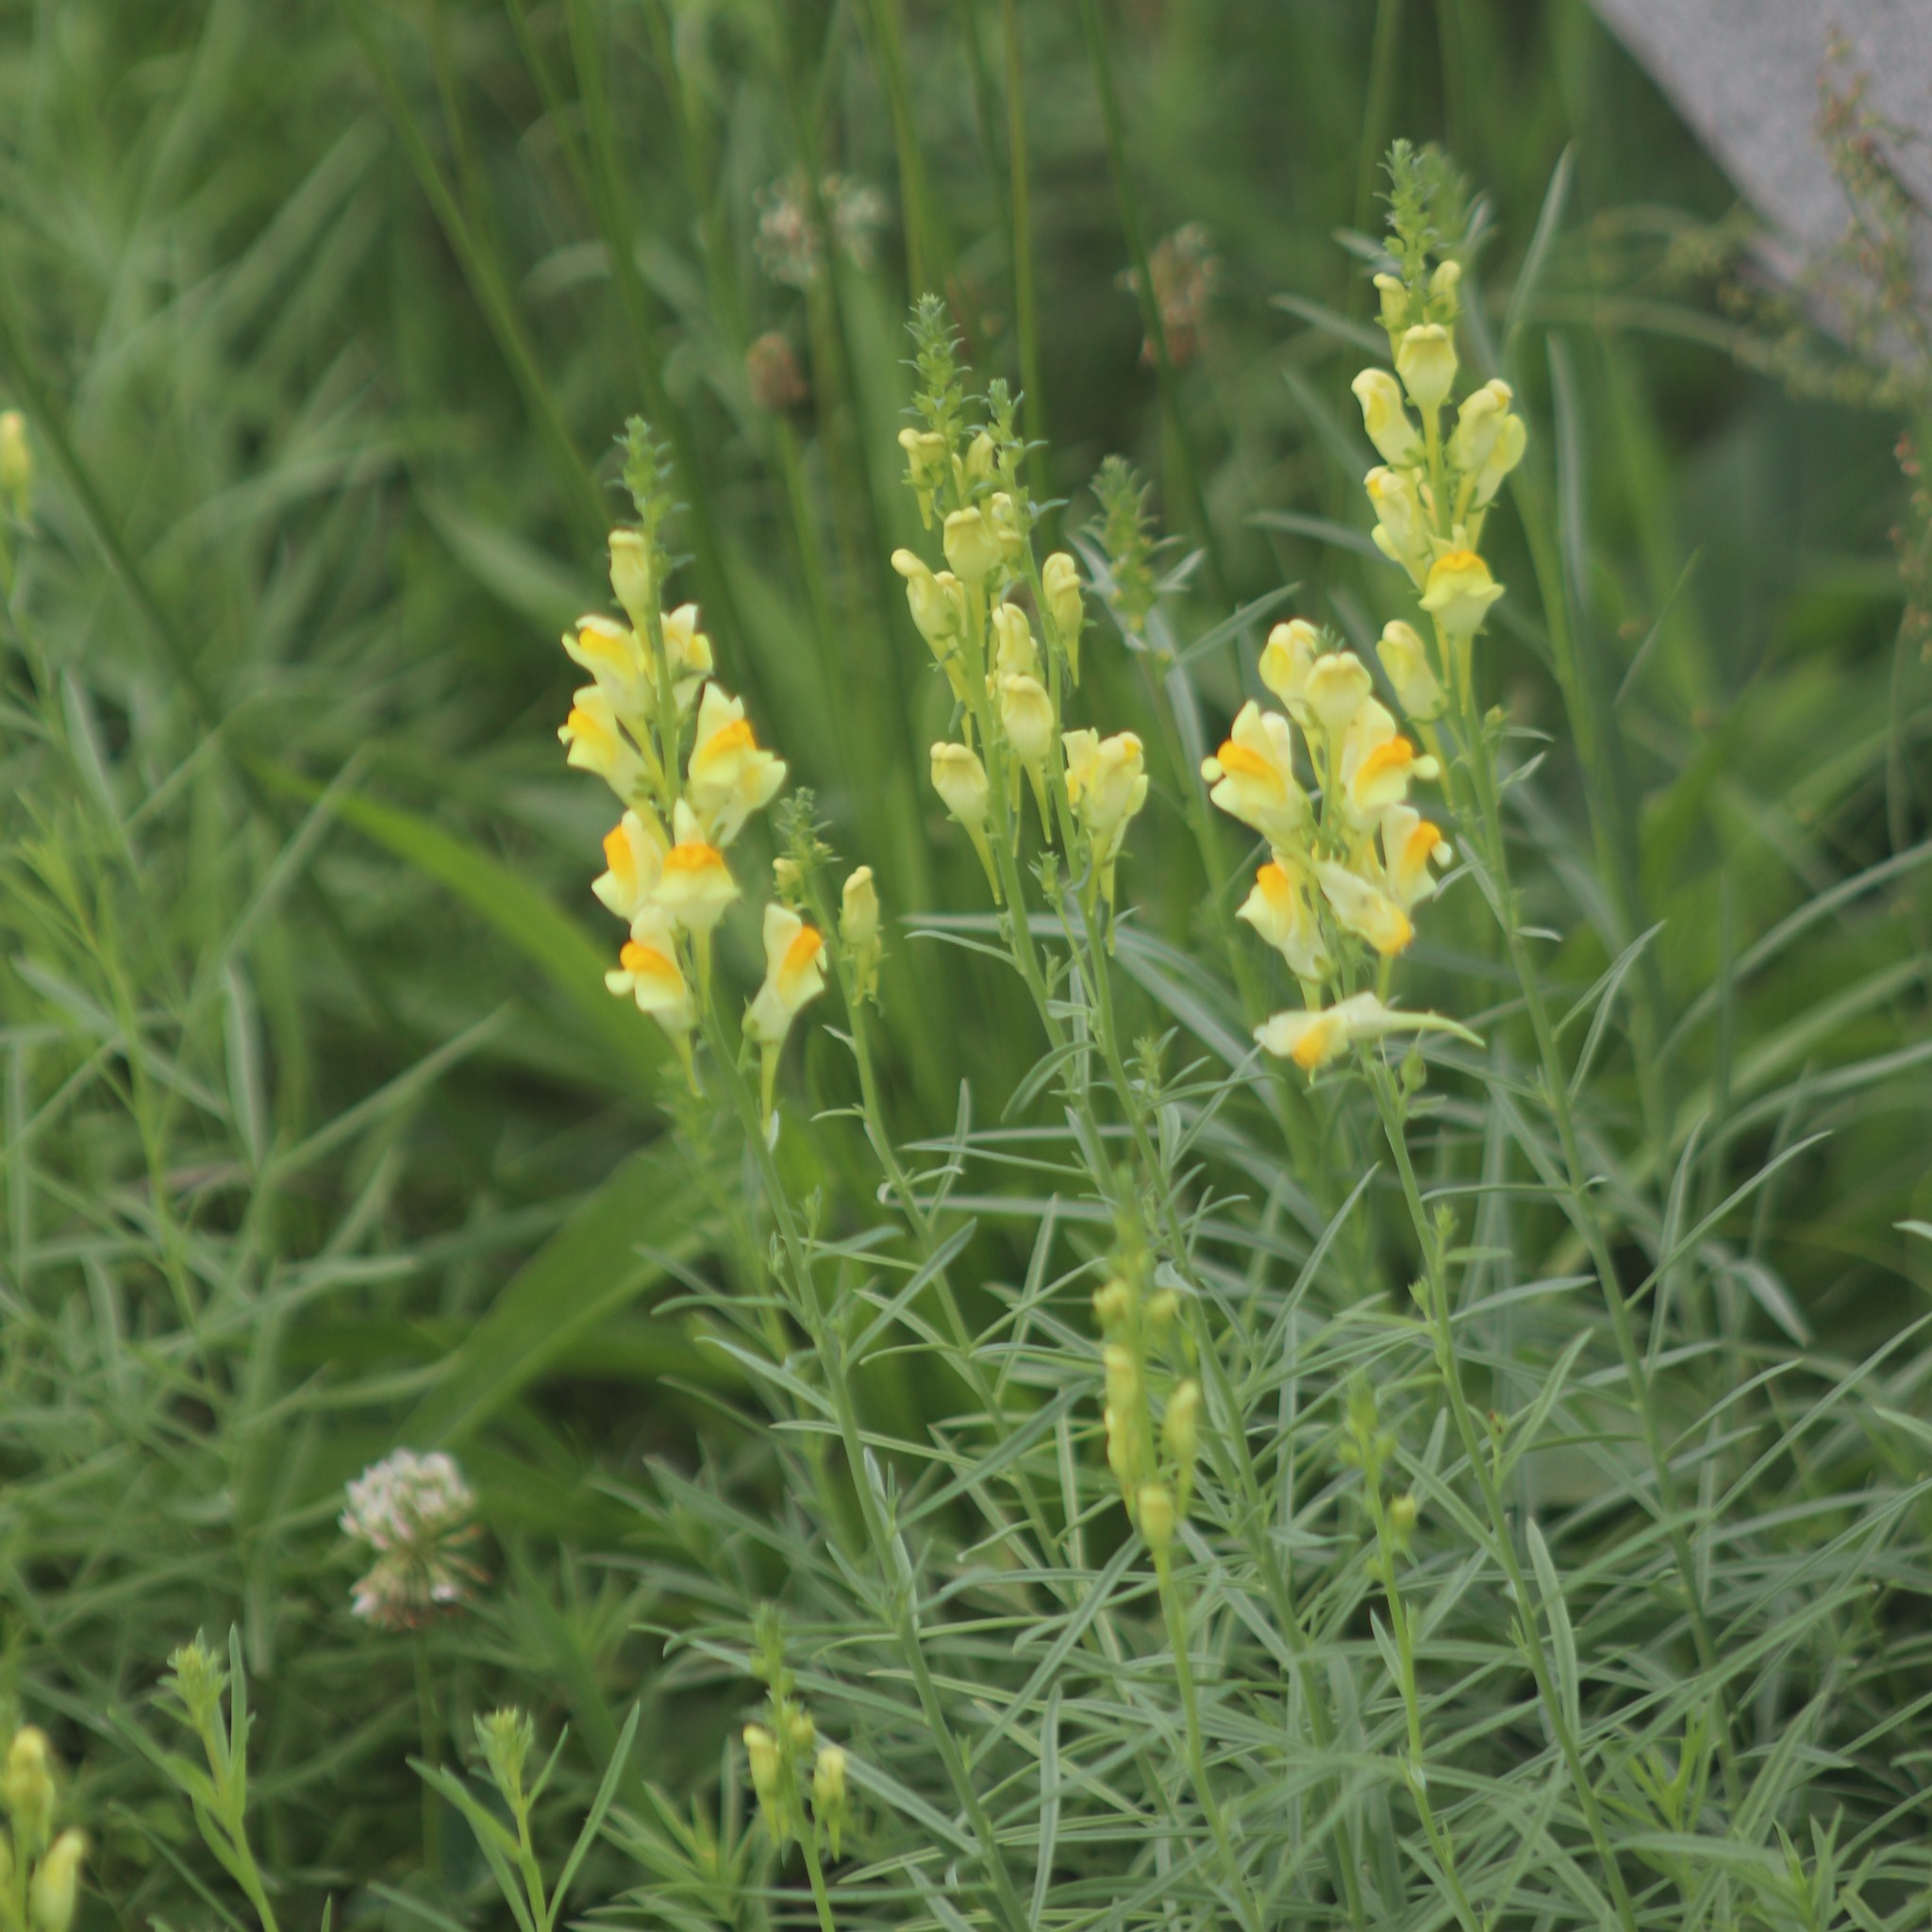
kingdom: Plantae
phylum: Tracheophyta
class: Magnoliopsida
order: Lamiales
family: Plantaginaceae
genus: Linaria
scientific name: Linaria vulgaris
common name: Butter and eggs
